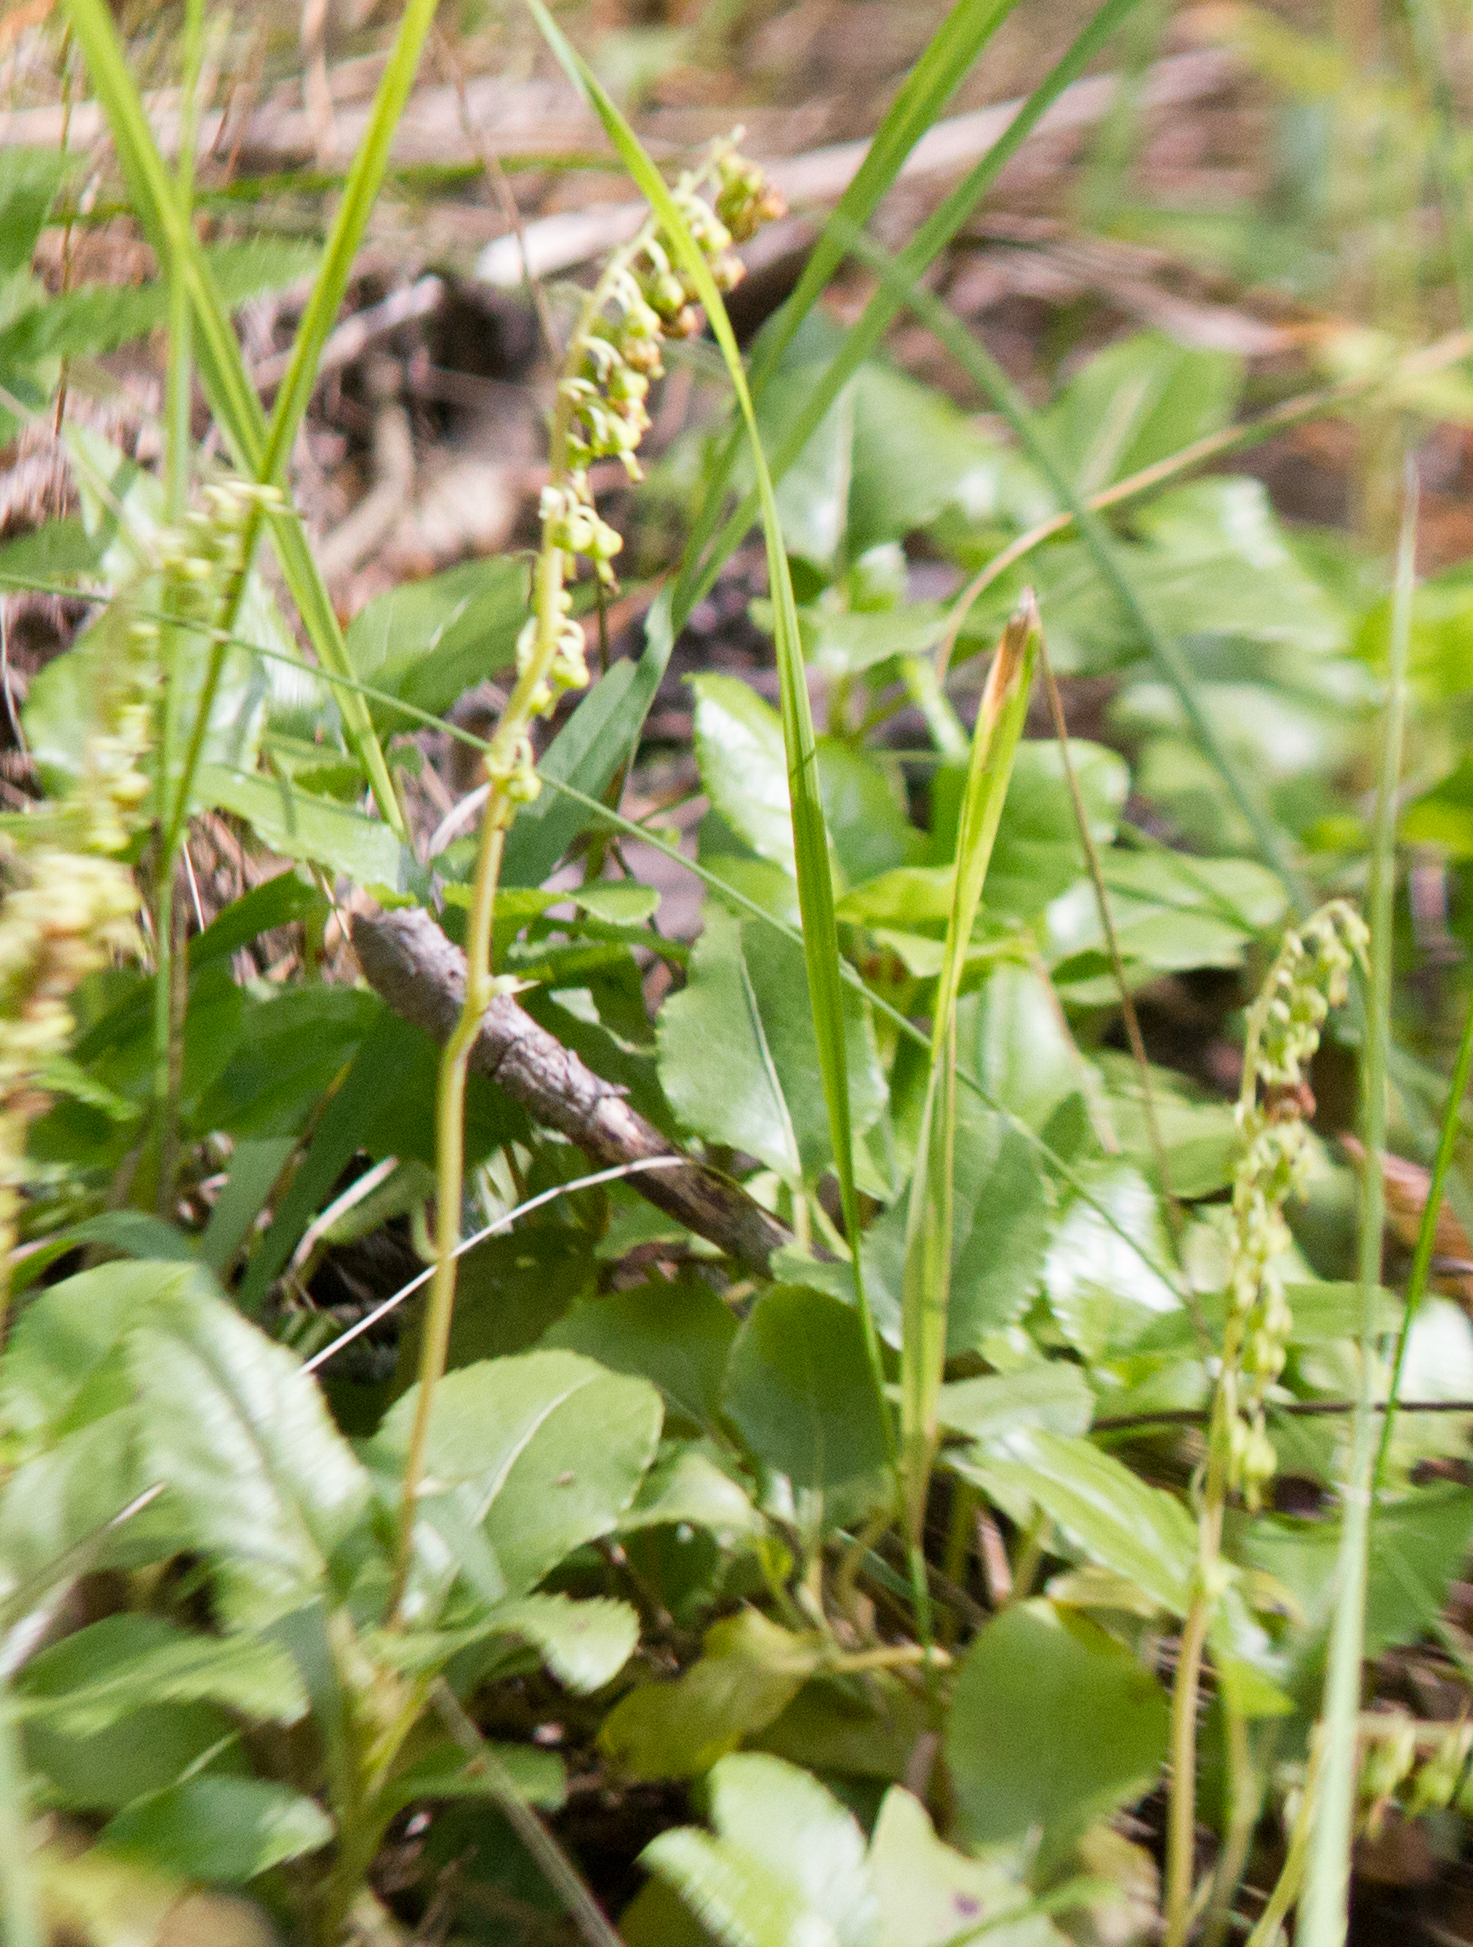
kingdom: Plantae
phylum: Tracheophyta
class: Magnoliopsida
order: Ericales
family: Ericaceae
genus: Orthilia
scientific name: Orthilia secunda
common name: One-sided orthilia
